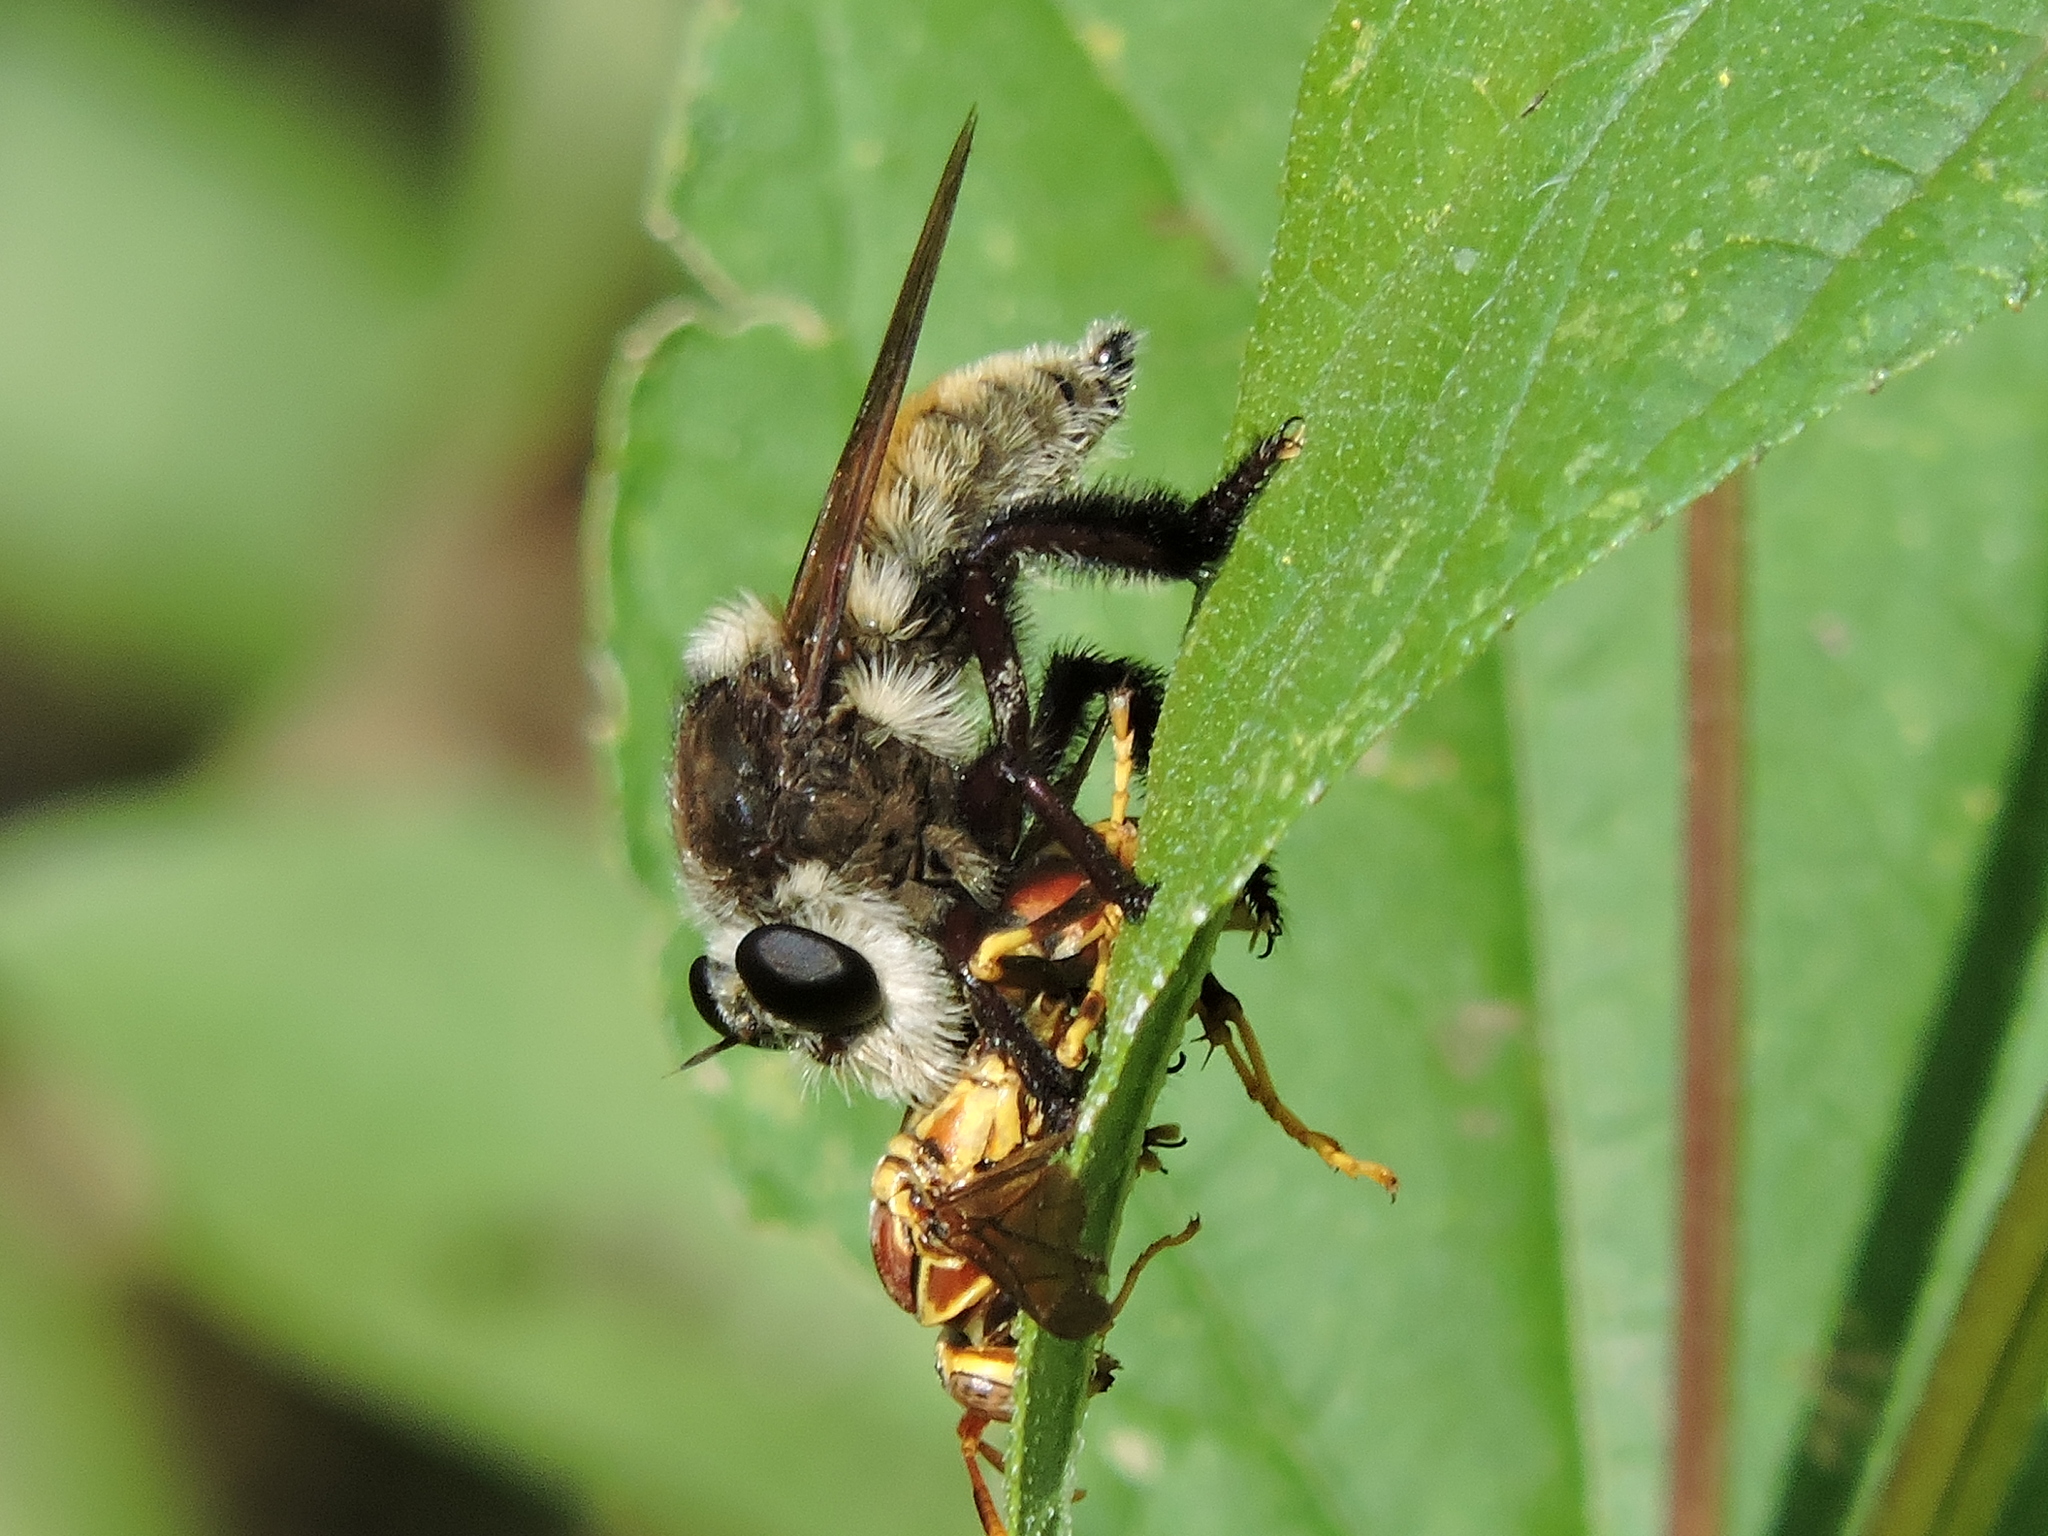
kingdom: Animalia
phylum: Arthropoda
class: Insecta
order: Diptera
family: Asilidae
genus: Mallophora
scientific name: Mallophora fautrix
